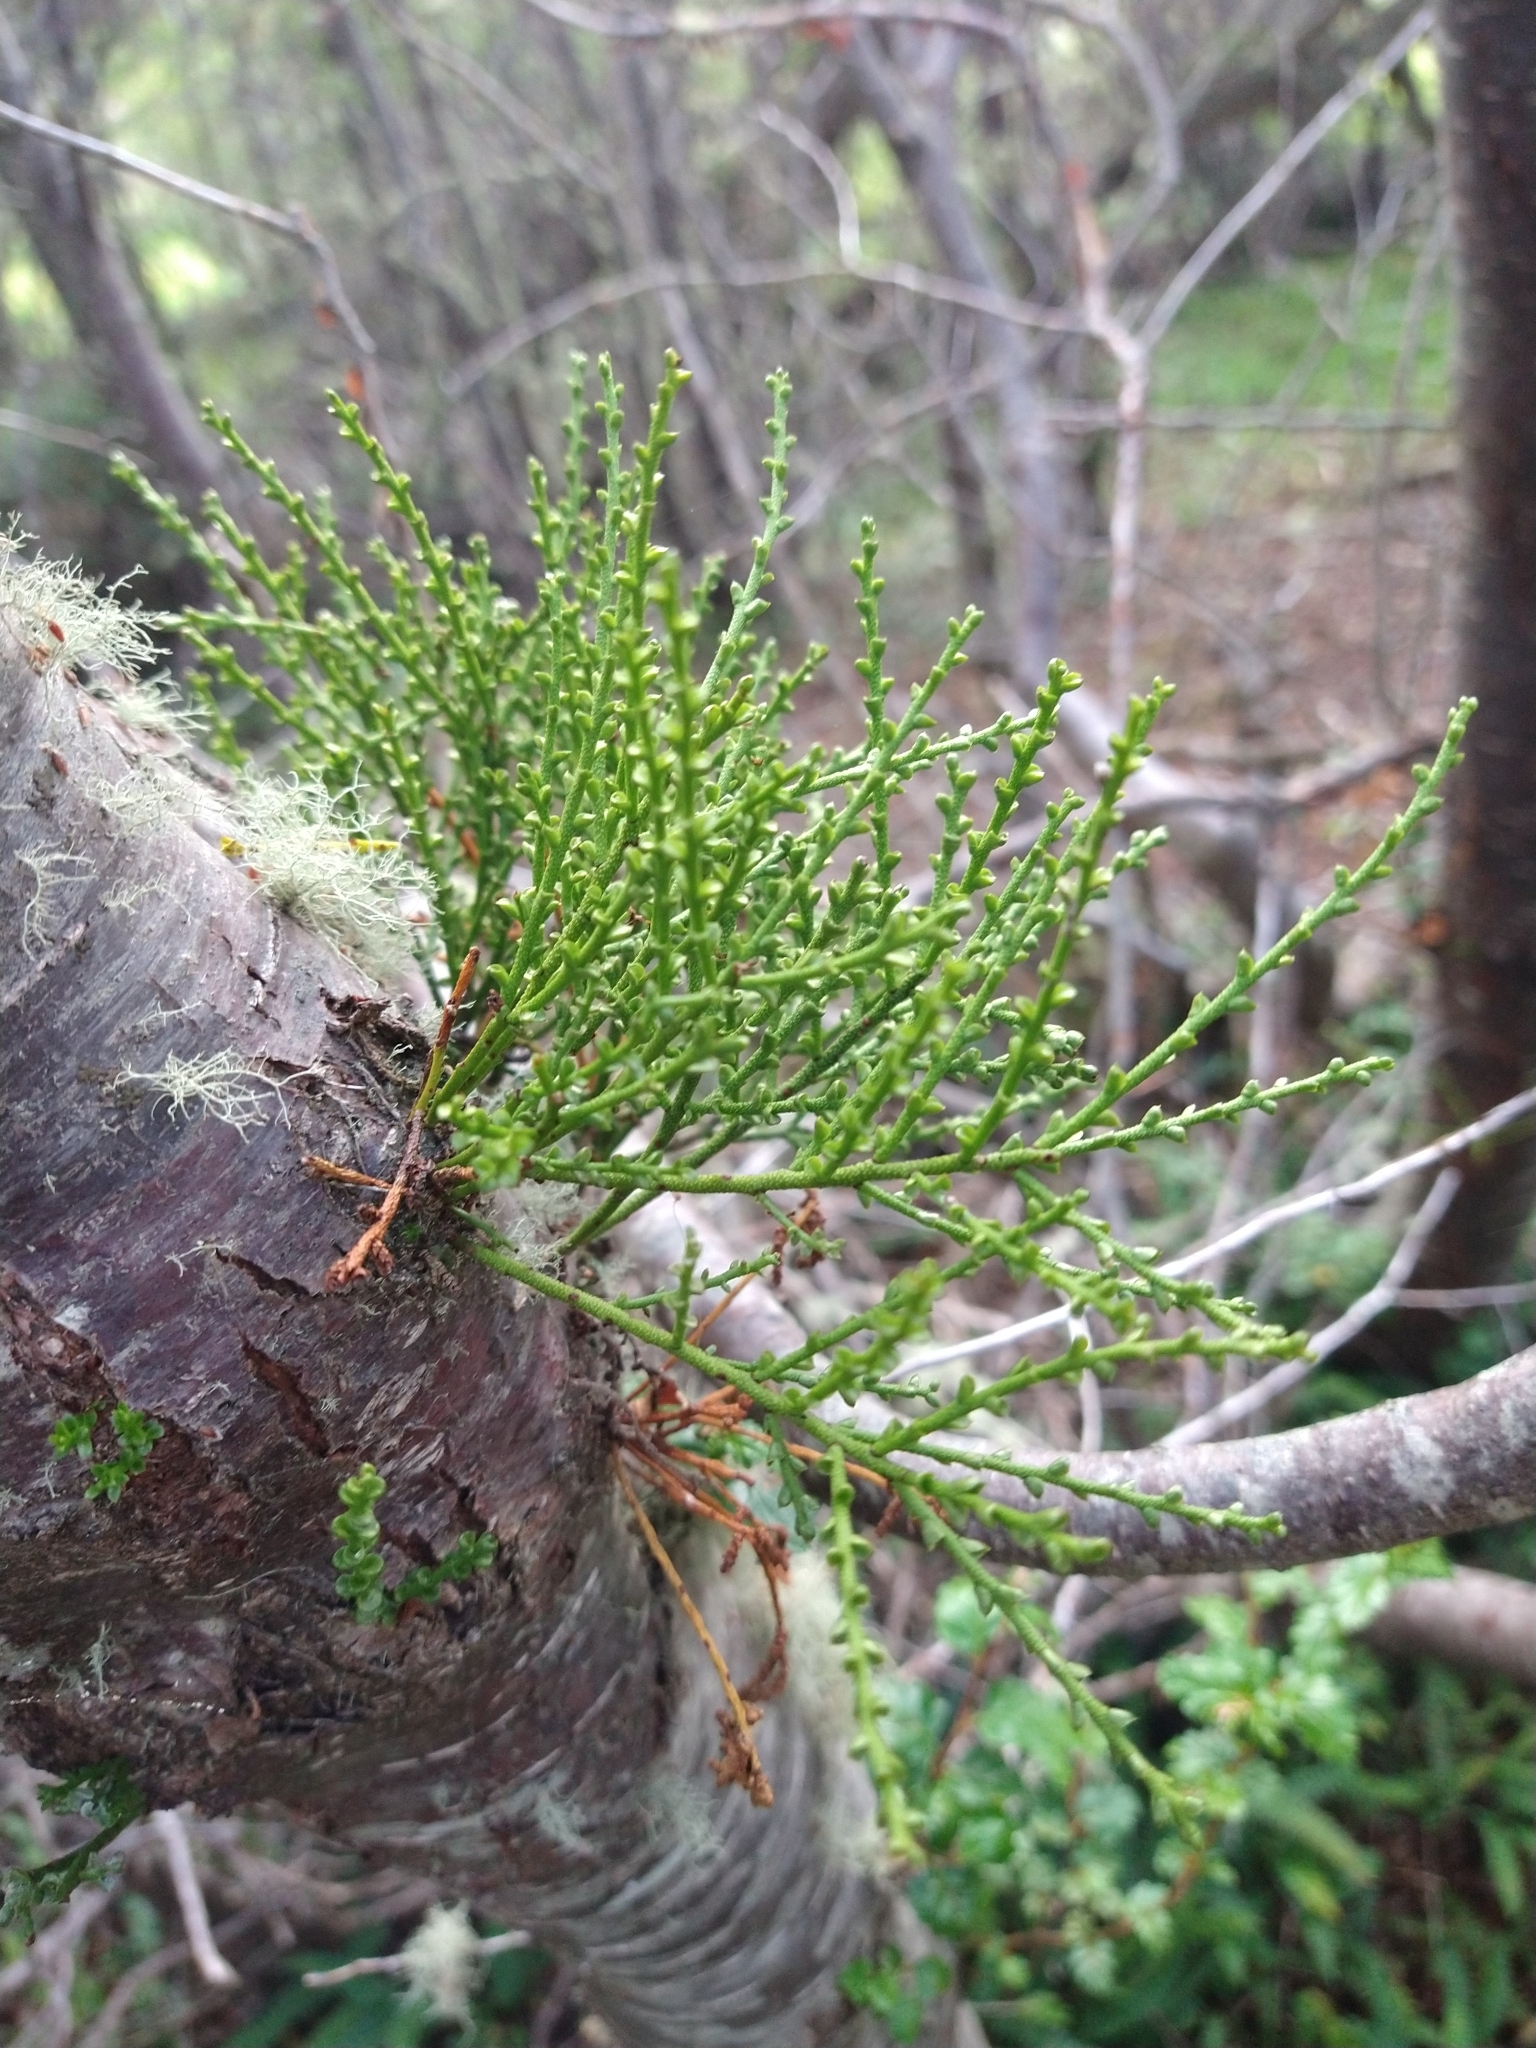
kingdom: Plantae
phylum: Tracheophyta
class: Magnoliopsida
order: Santalales
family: Misodendraceae
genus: Misodendrum
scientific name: Misodendrum punctulatum
